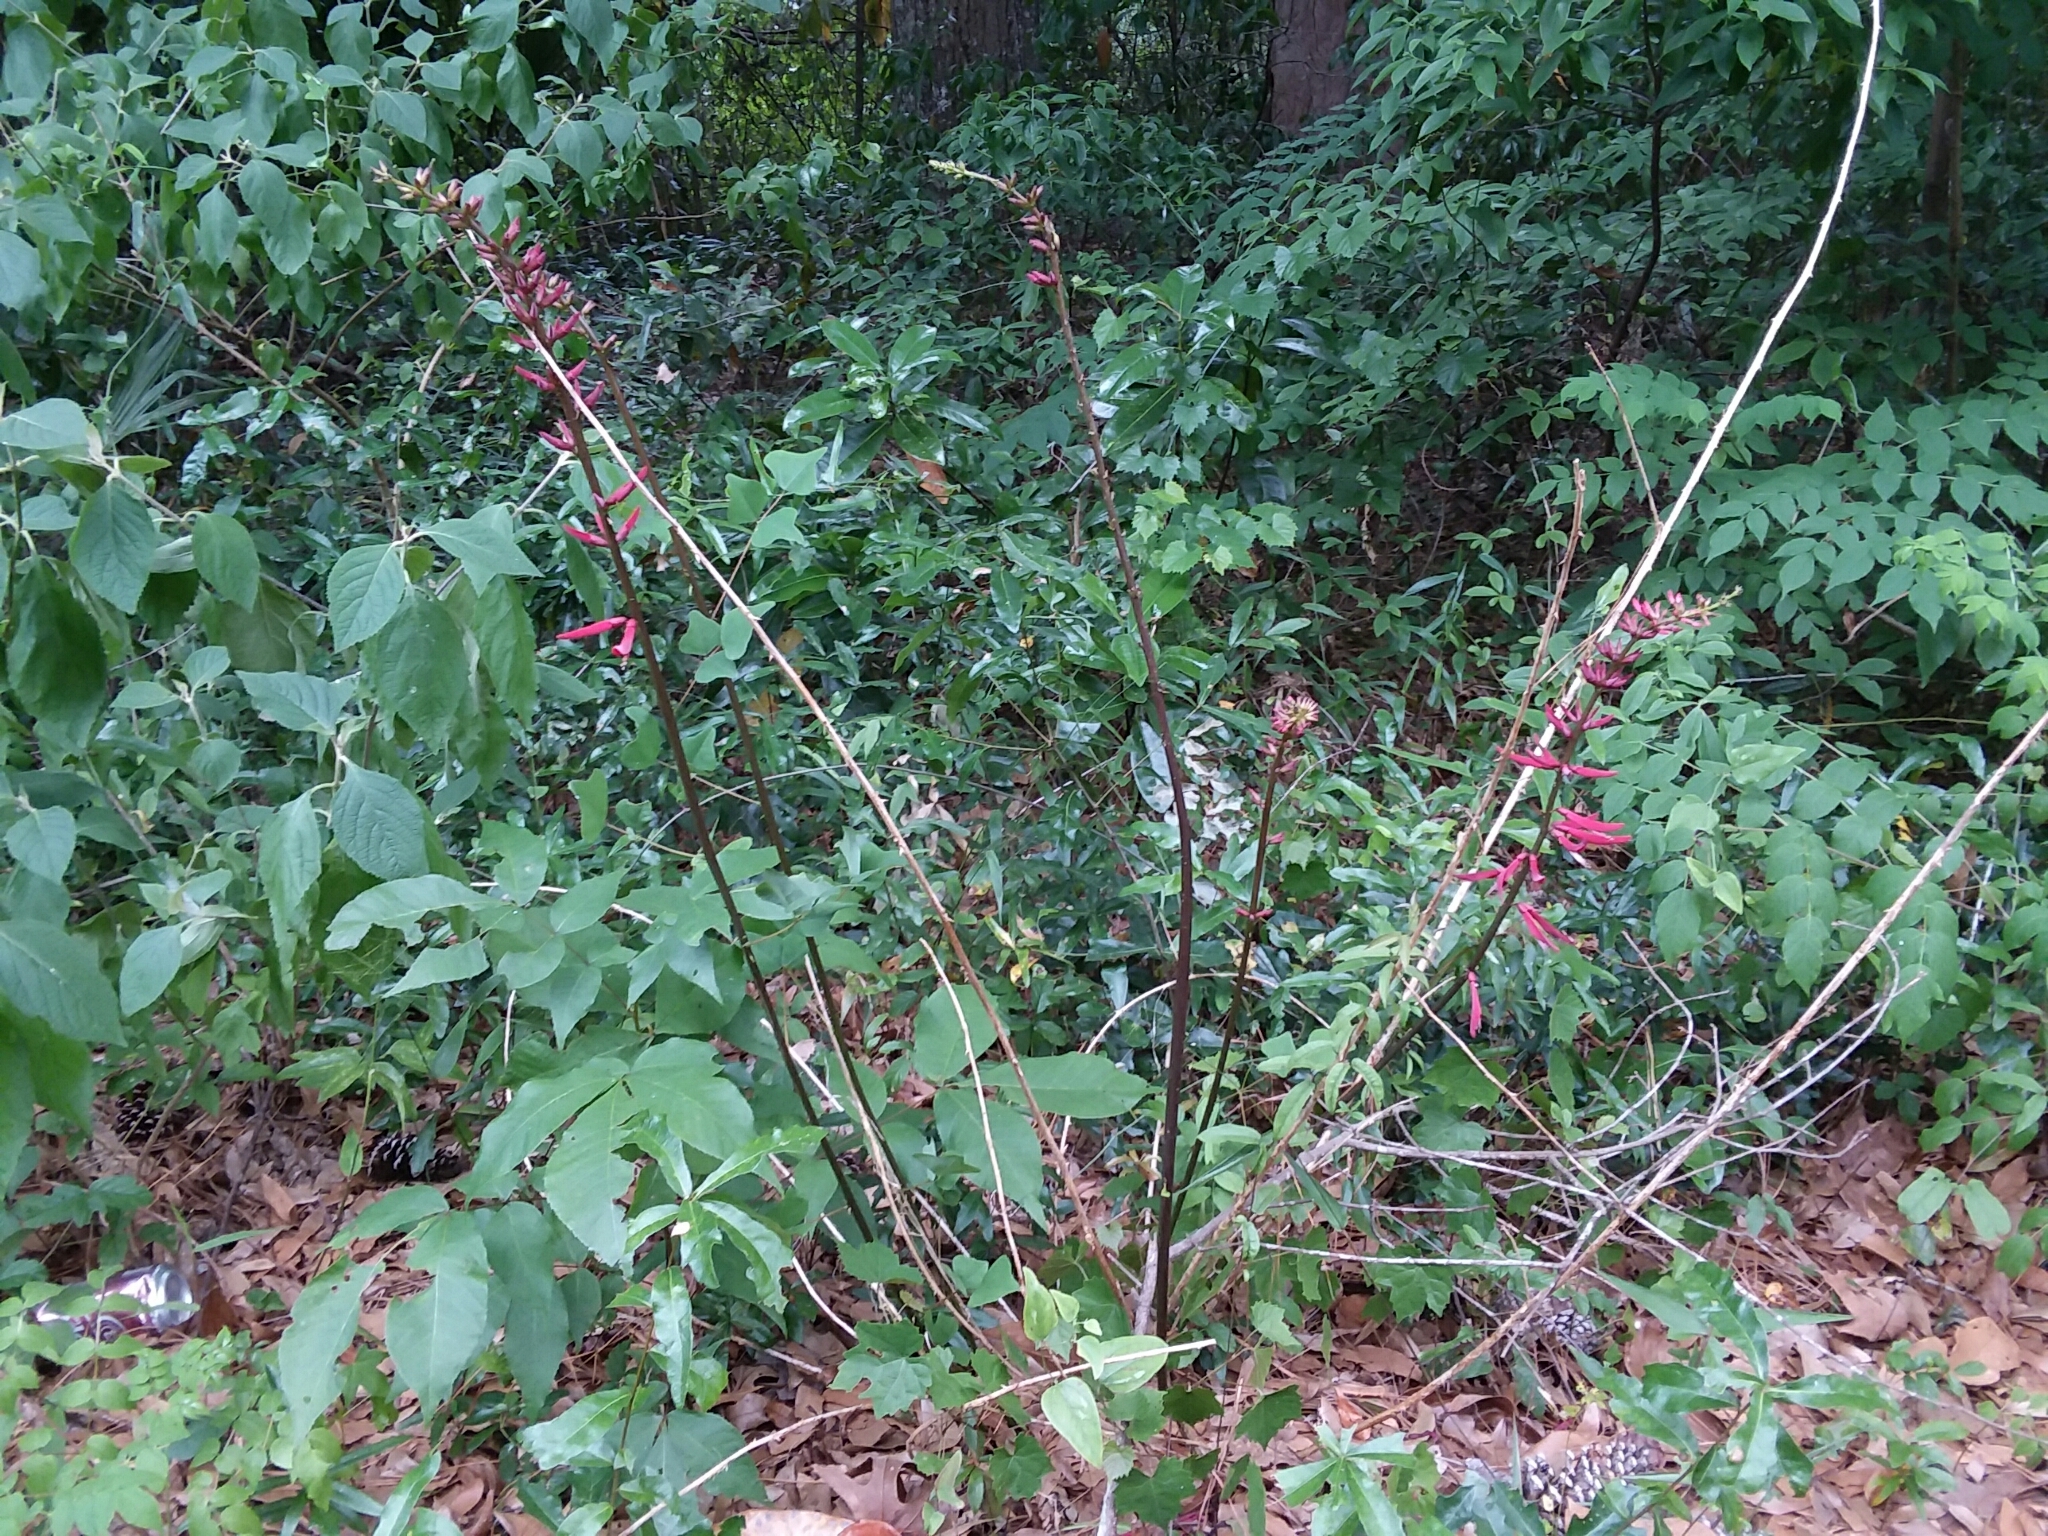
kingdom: Plantae
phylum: Tracheophyta
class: Magnoliopsida
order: Fabales
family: Fabaceae
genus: Erythrina
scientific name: Erythrina herbacea
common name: Coral-bean
